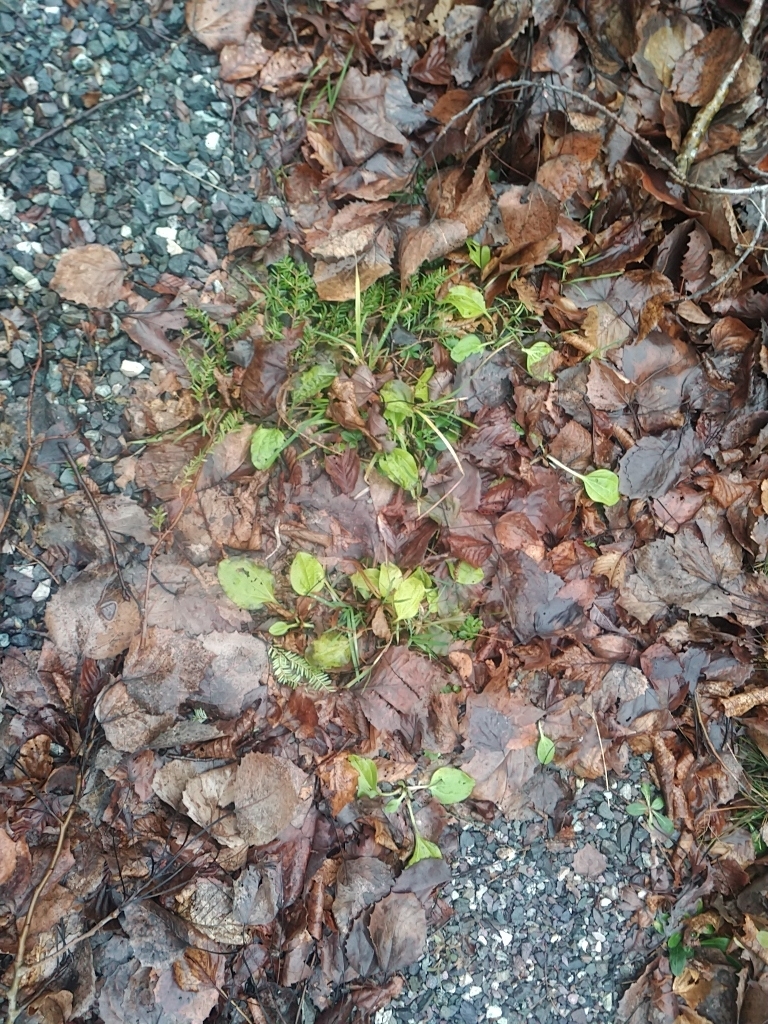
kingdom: Plantae
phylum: Tracheophyta
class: Magnoliopsida
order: Lamiales
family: Plantaginaceae
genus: Plantago
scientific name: Plantago major
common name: Common plantain
